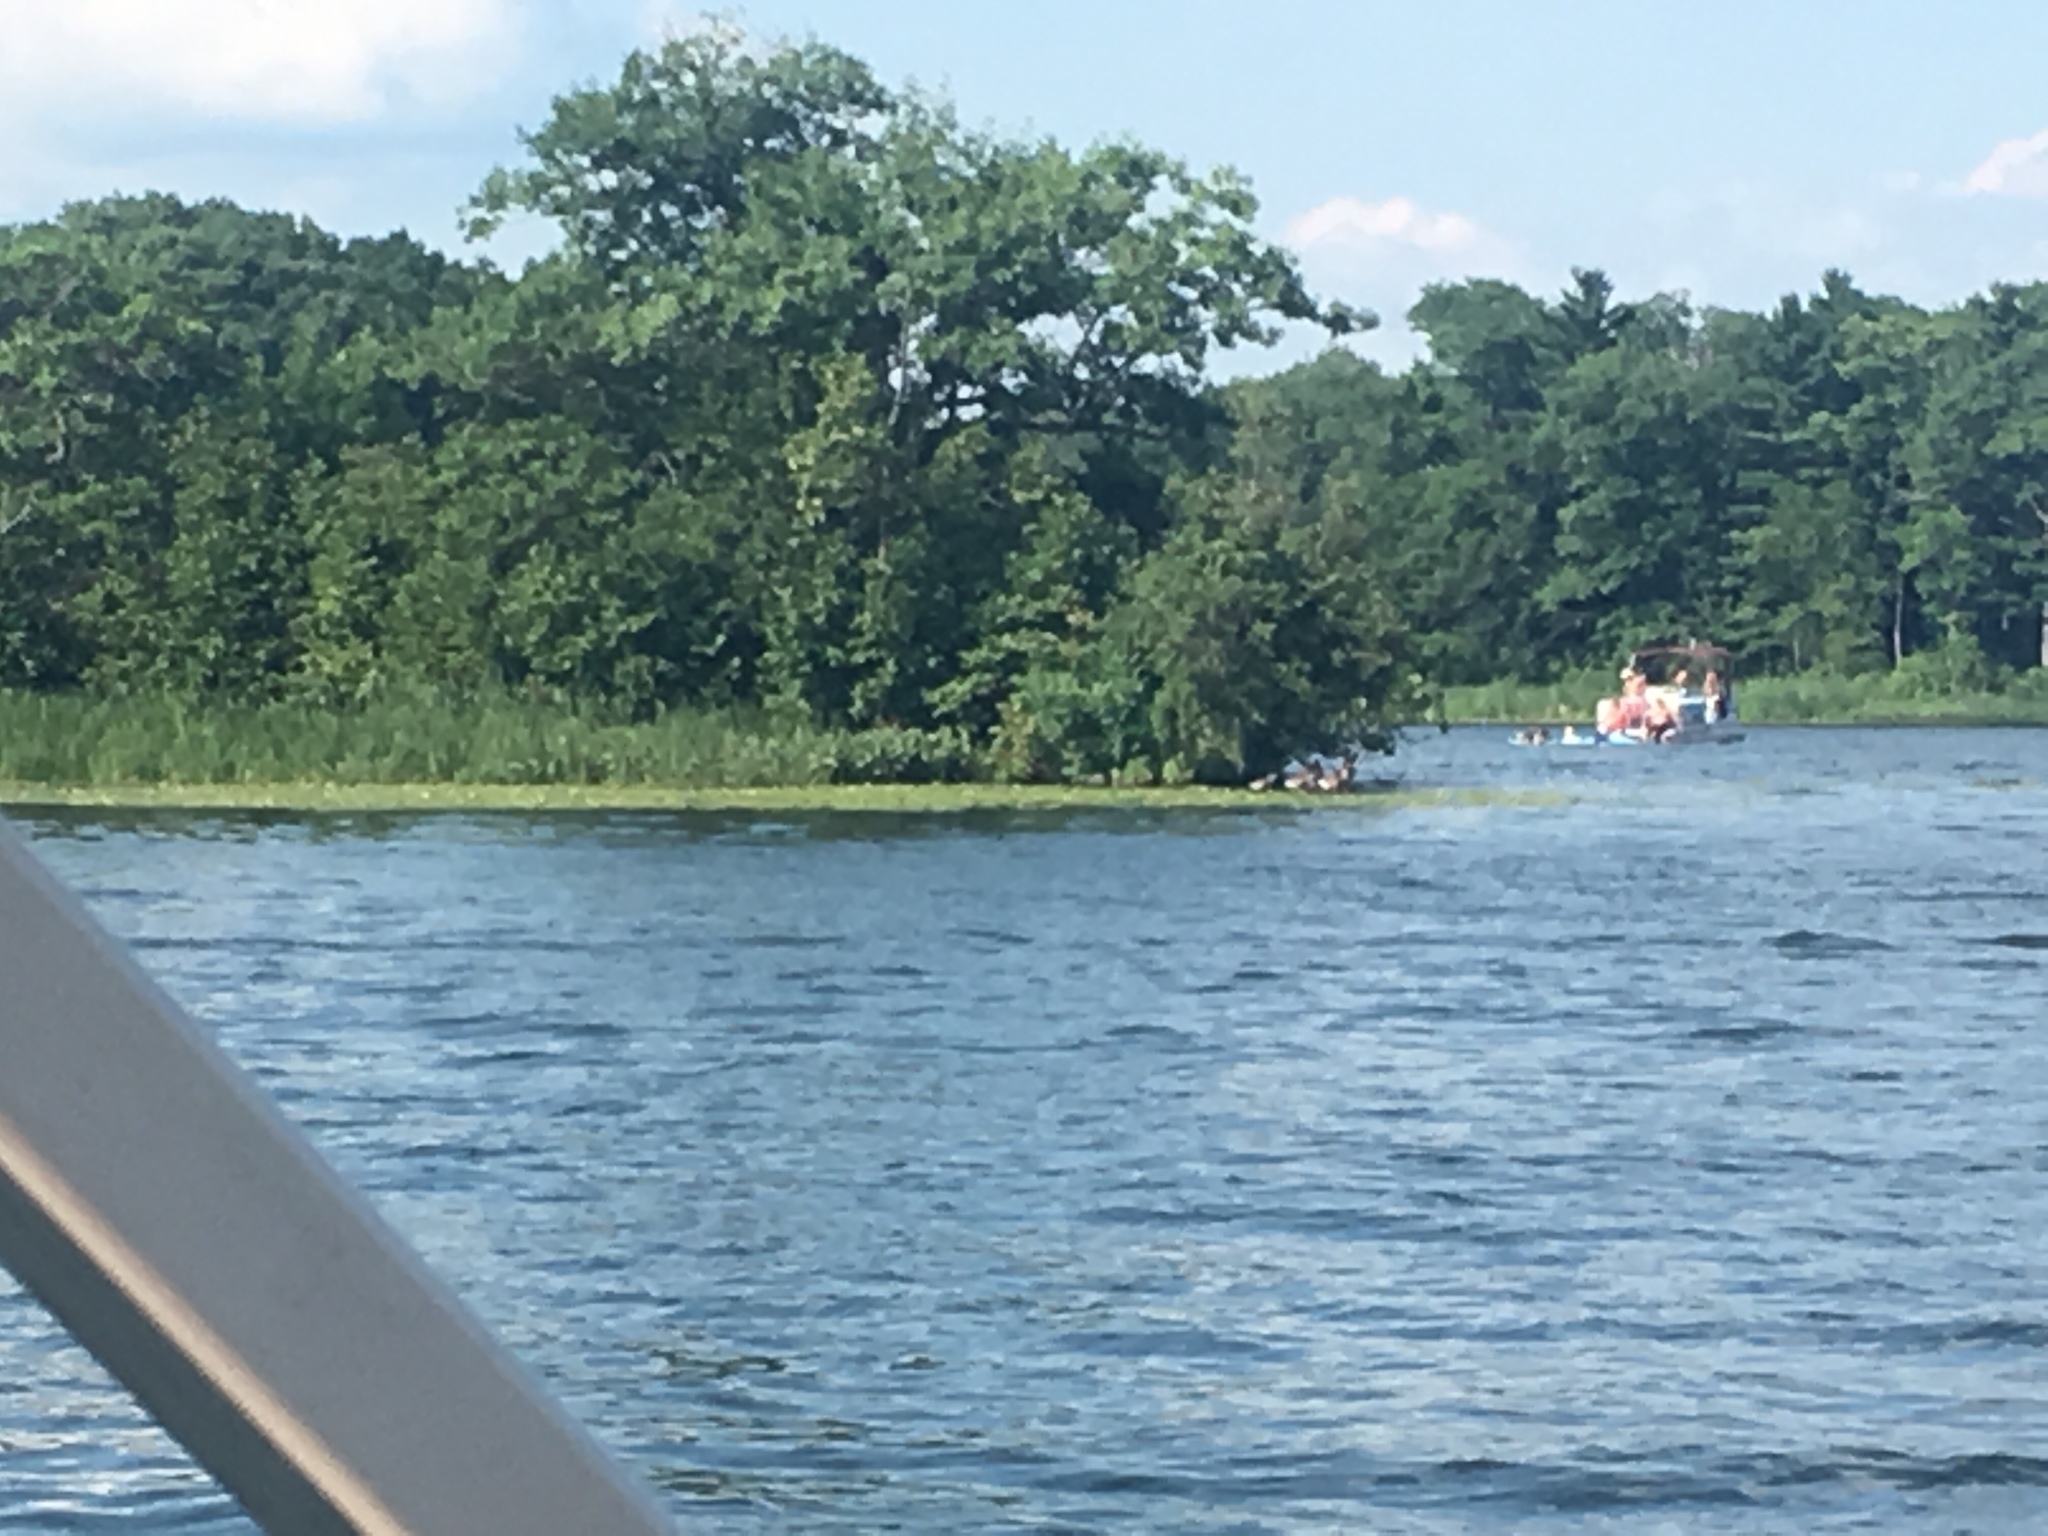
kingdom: Animalia
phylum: Chordata
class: Aves
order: Anseriformes
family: Anatidae
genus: Branta
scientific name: Branta canadensis
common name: Canada goose
